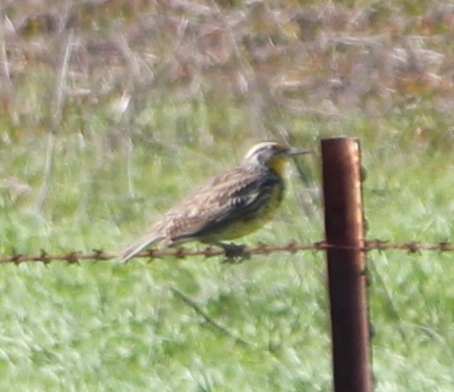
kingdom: Animalia
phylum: Chordata
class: Aves
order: Passeriformes
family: Icteridae
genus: Sturnella
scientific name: Sturnella neglecta
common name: Western meadowlark
